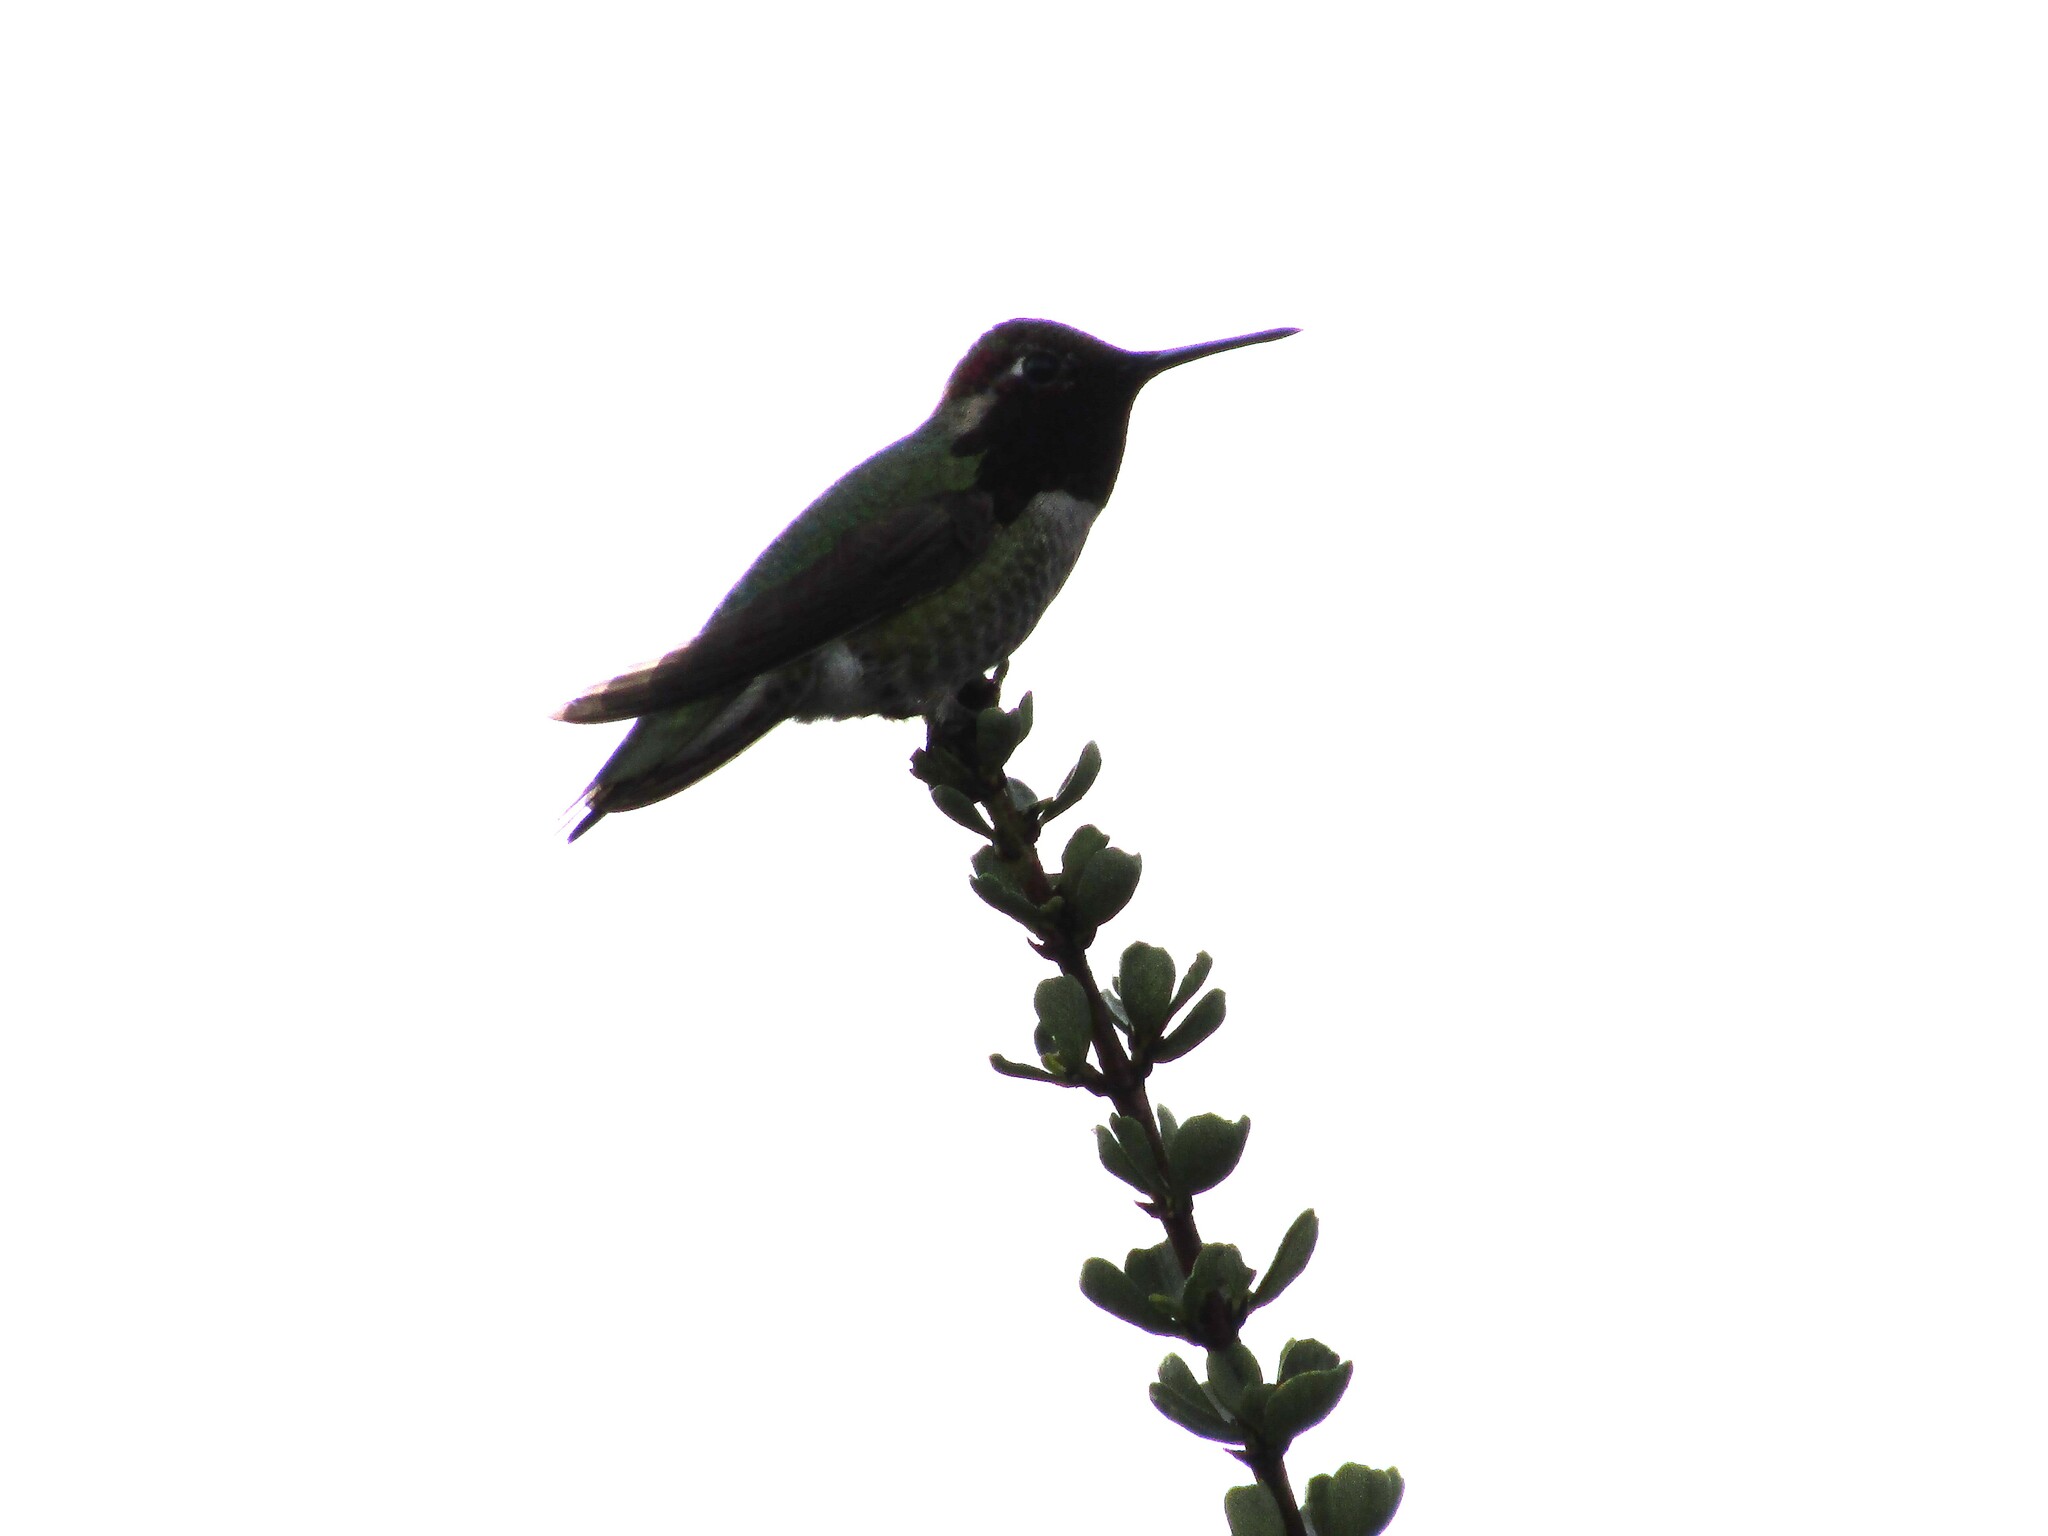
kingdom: Animalia
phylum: Chordata
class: Aves
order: Apodiformes
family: Trochilidae
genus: Calypte
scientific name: Calypte anna
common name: Anna's hummingbird
